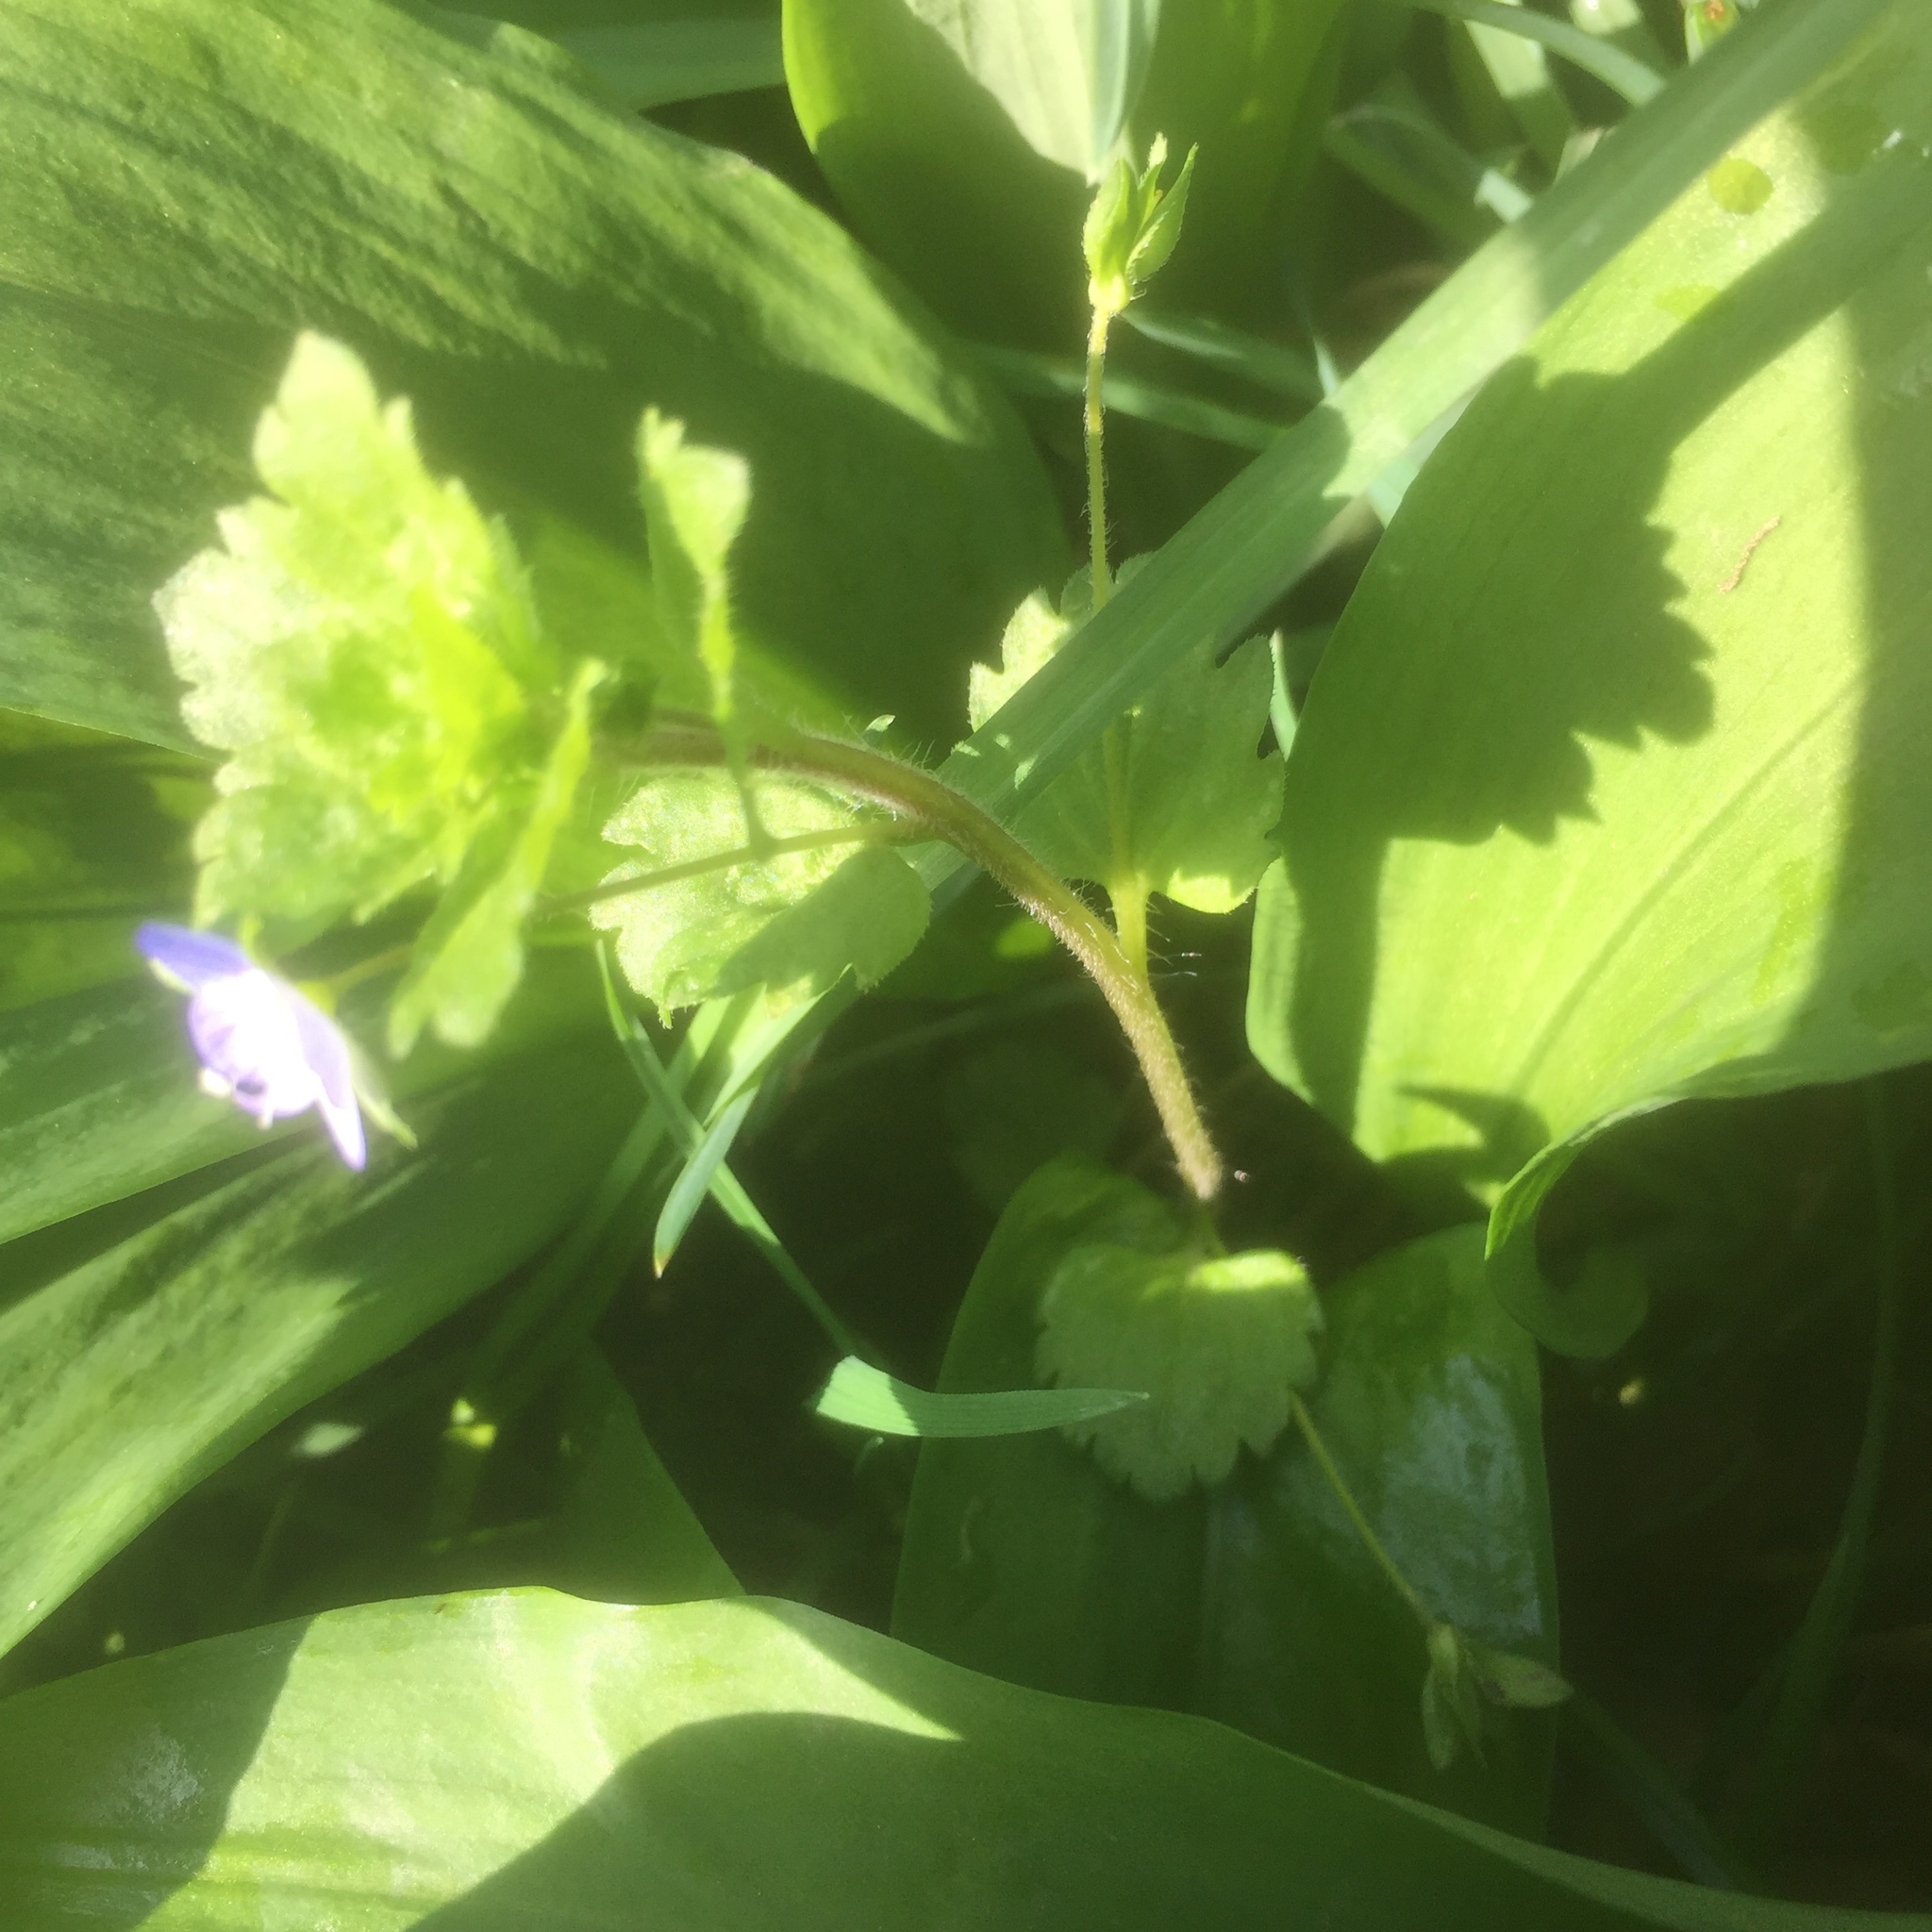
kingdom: Plantae
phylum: Tracheophyta
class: Magnoliopsida
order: Lamiales
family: Plantaginaceae
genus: Veronica
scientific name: Veronica persica
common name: Common field-speedwell
